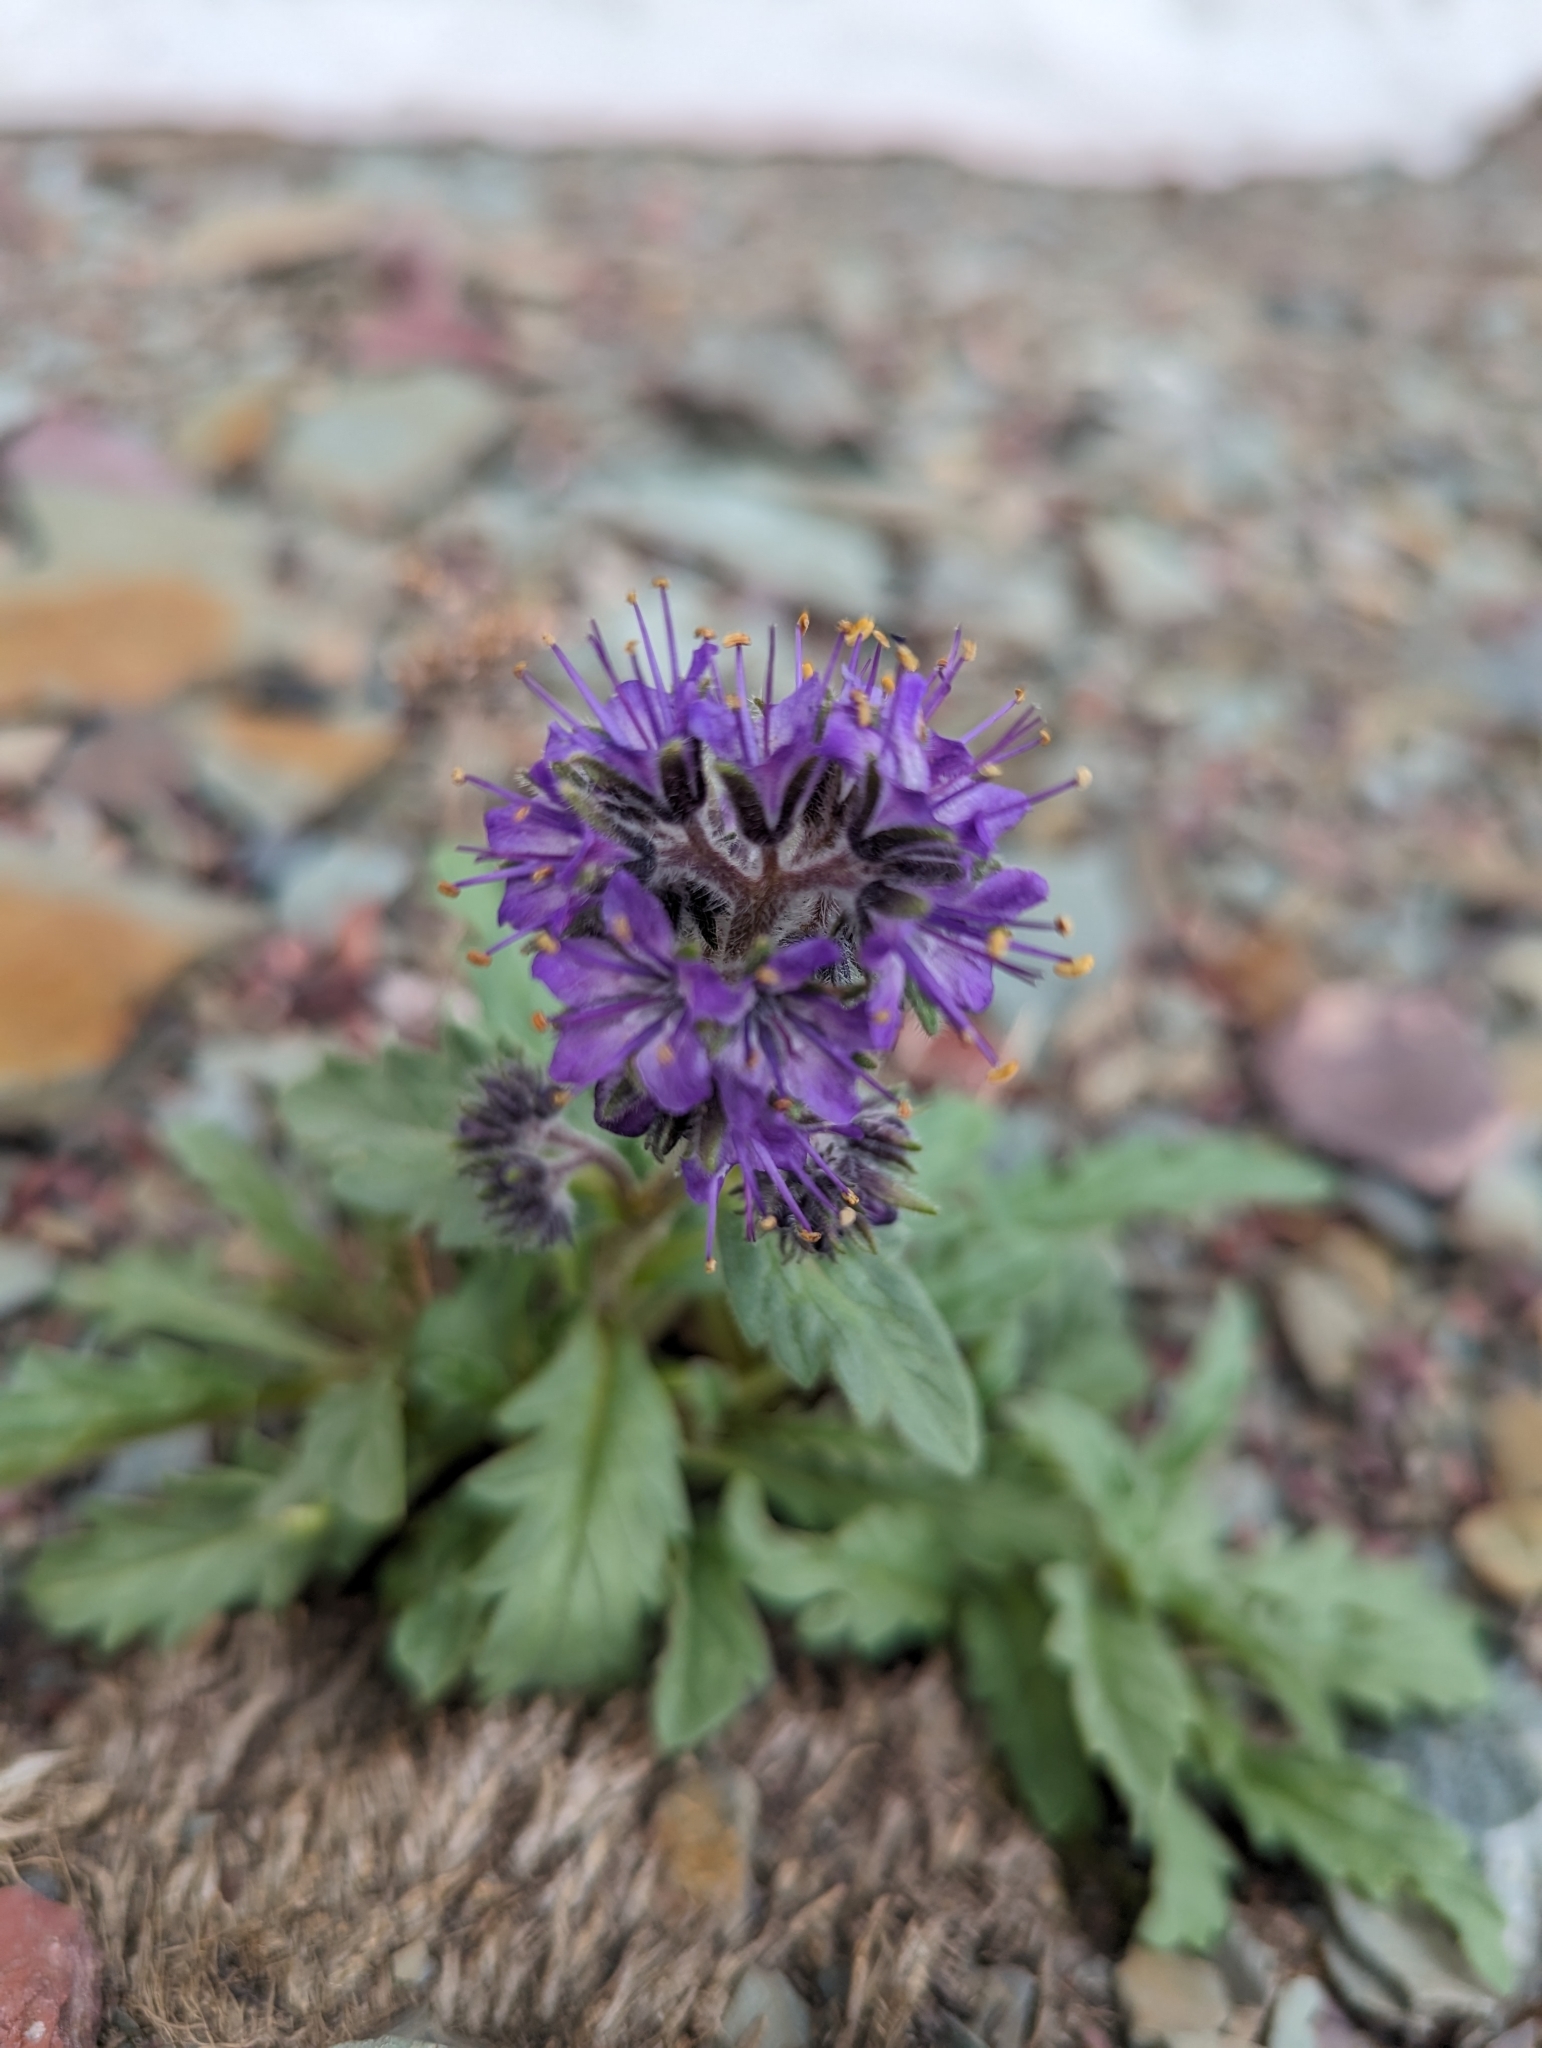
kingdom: Plantae
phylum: Tracheophyta
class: Magnoliopsida
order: Boraginales
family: Hydrophyllaceae
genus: Phacelia
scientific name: Phacelia sericea
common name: Silky phacelia
